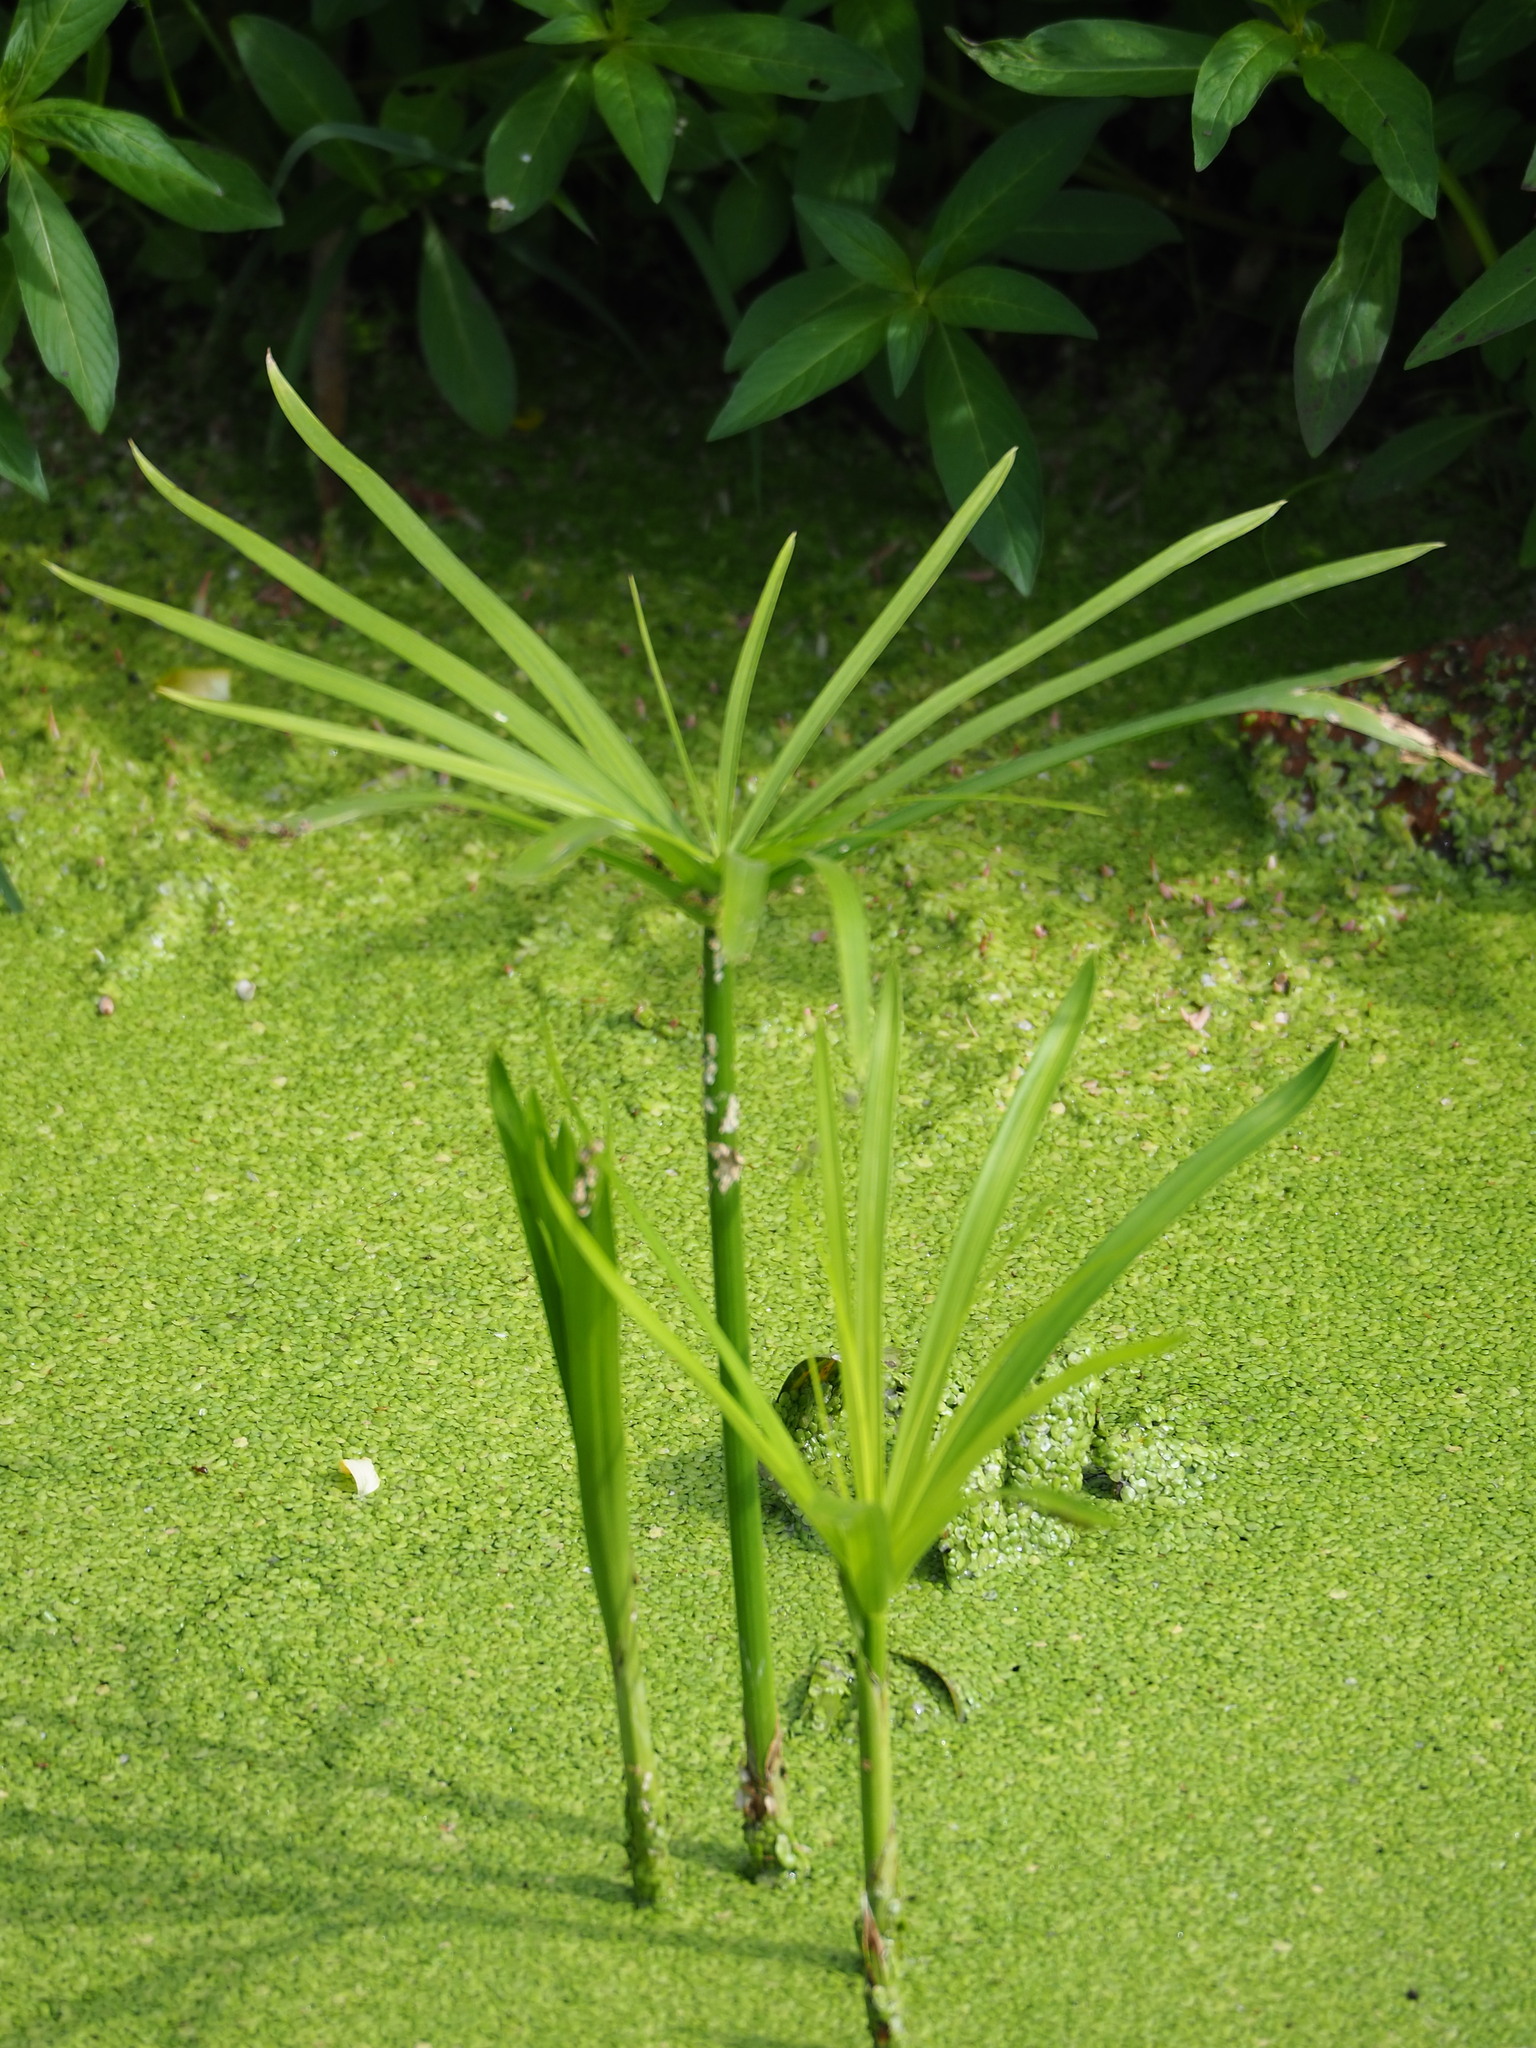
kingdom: Plantae
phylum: Tracheophyta
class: Liliopsida
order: Poales
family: Cyperaceae
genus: Cyperus
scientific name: Cyperus alternifolius
